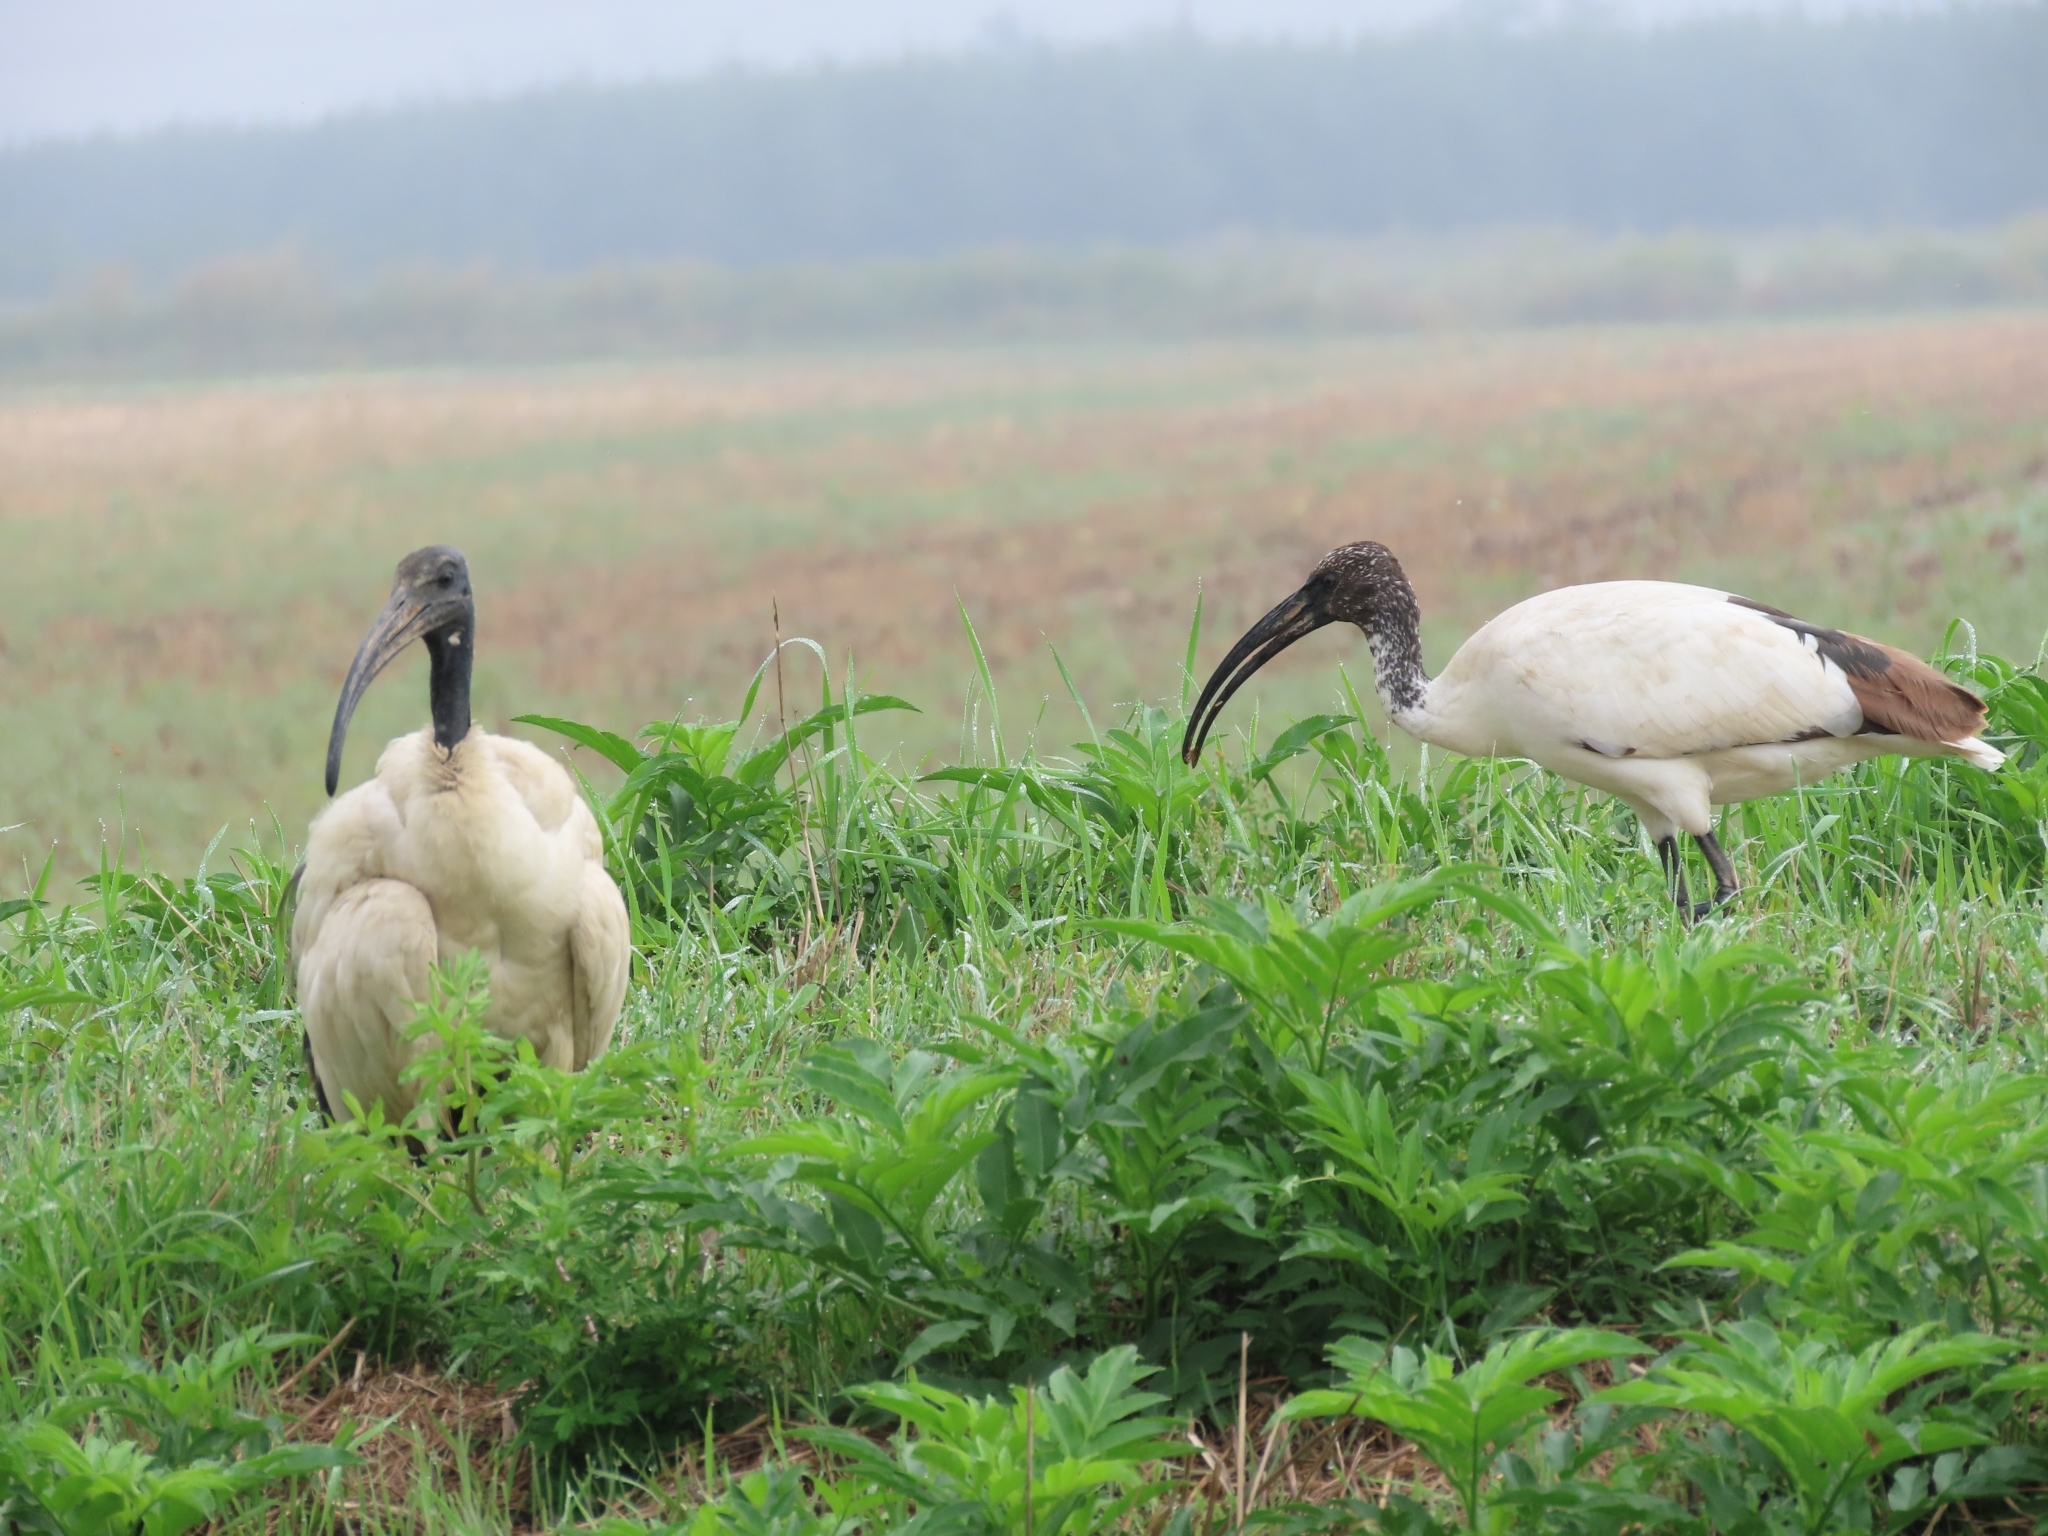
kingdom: Animalia
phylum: Chordata
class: Aves
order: Pelecaniformes
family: Threskiornithidae
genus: Threskiornis
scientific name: Threskiornis aethiopicus
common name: Sacred ibis
